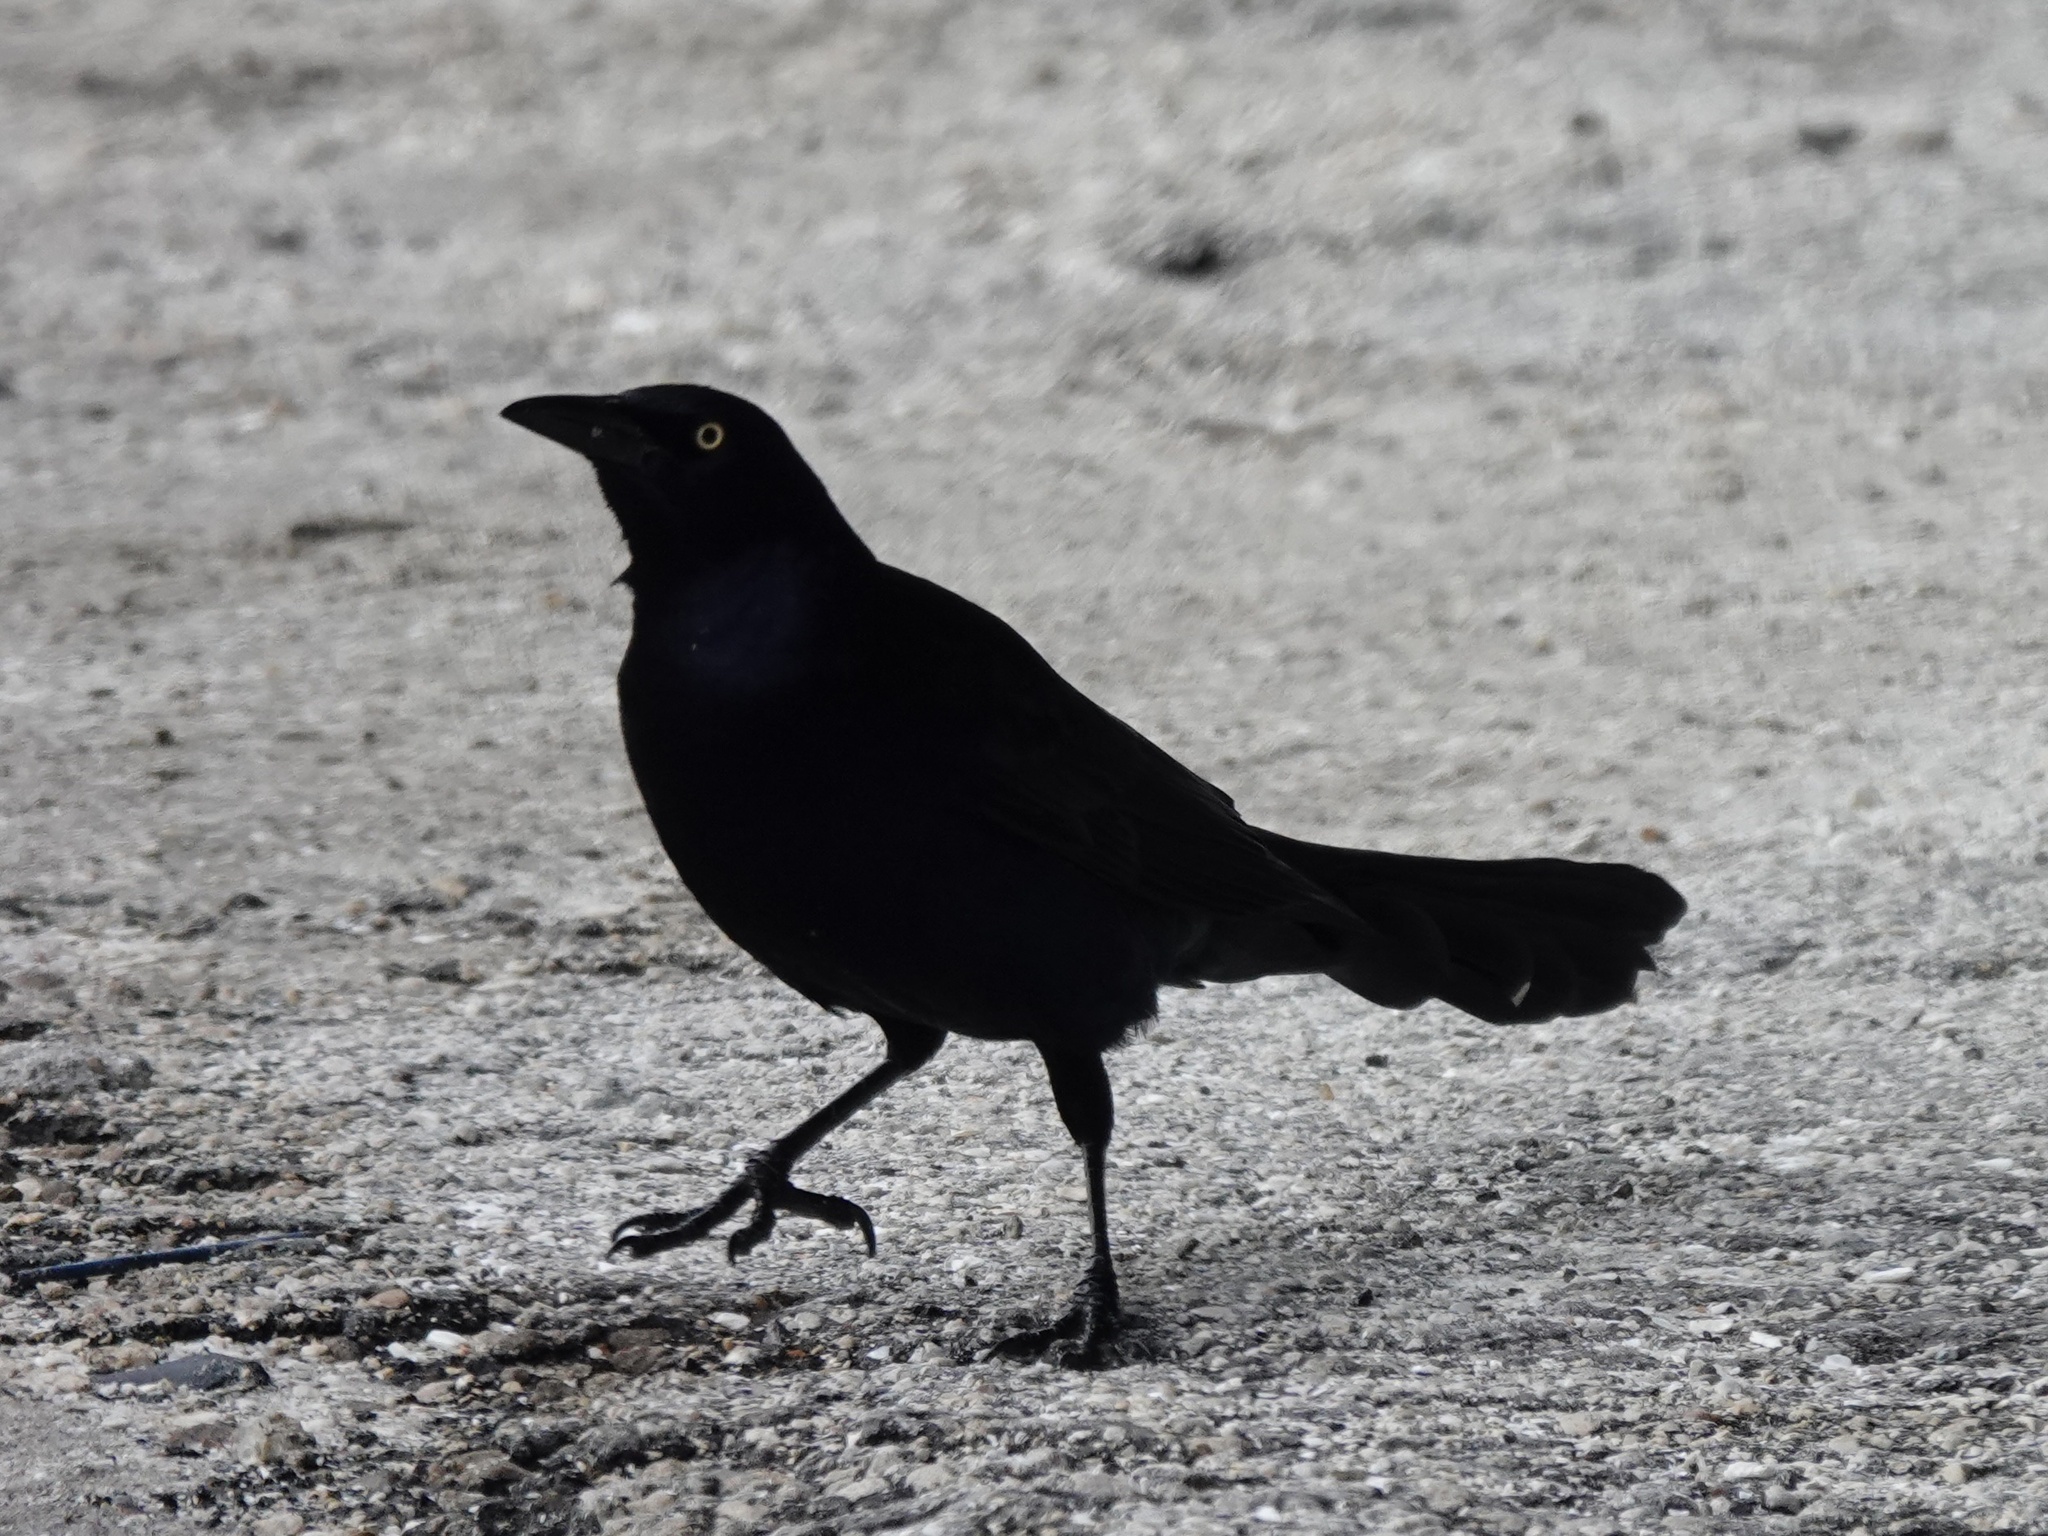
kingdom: Animalia
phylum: Chordata
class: Aves
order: Passeriformes
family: Icteridae
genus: Quiscalus
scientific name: Quiscalus mexicanus
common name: Great-tailed grackle
